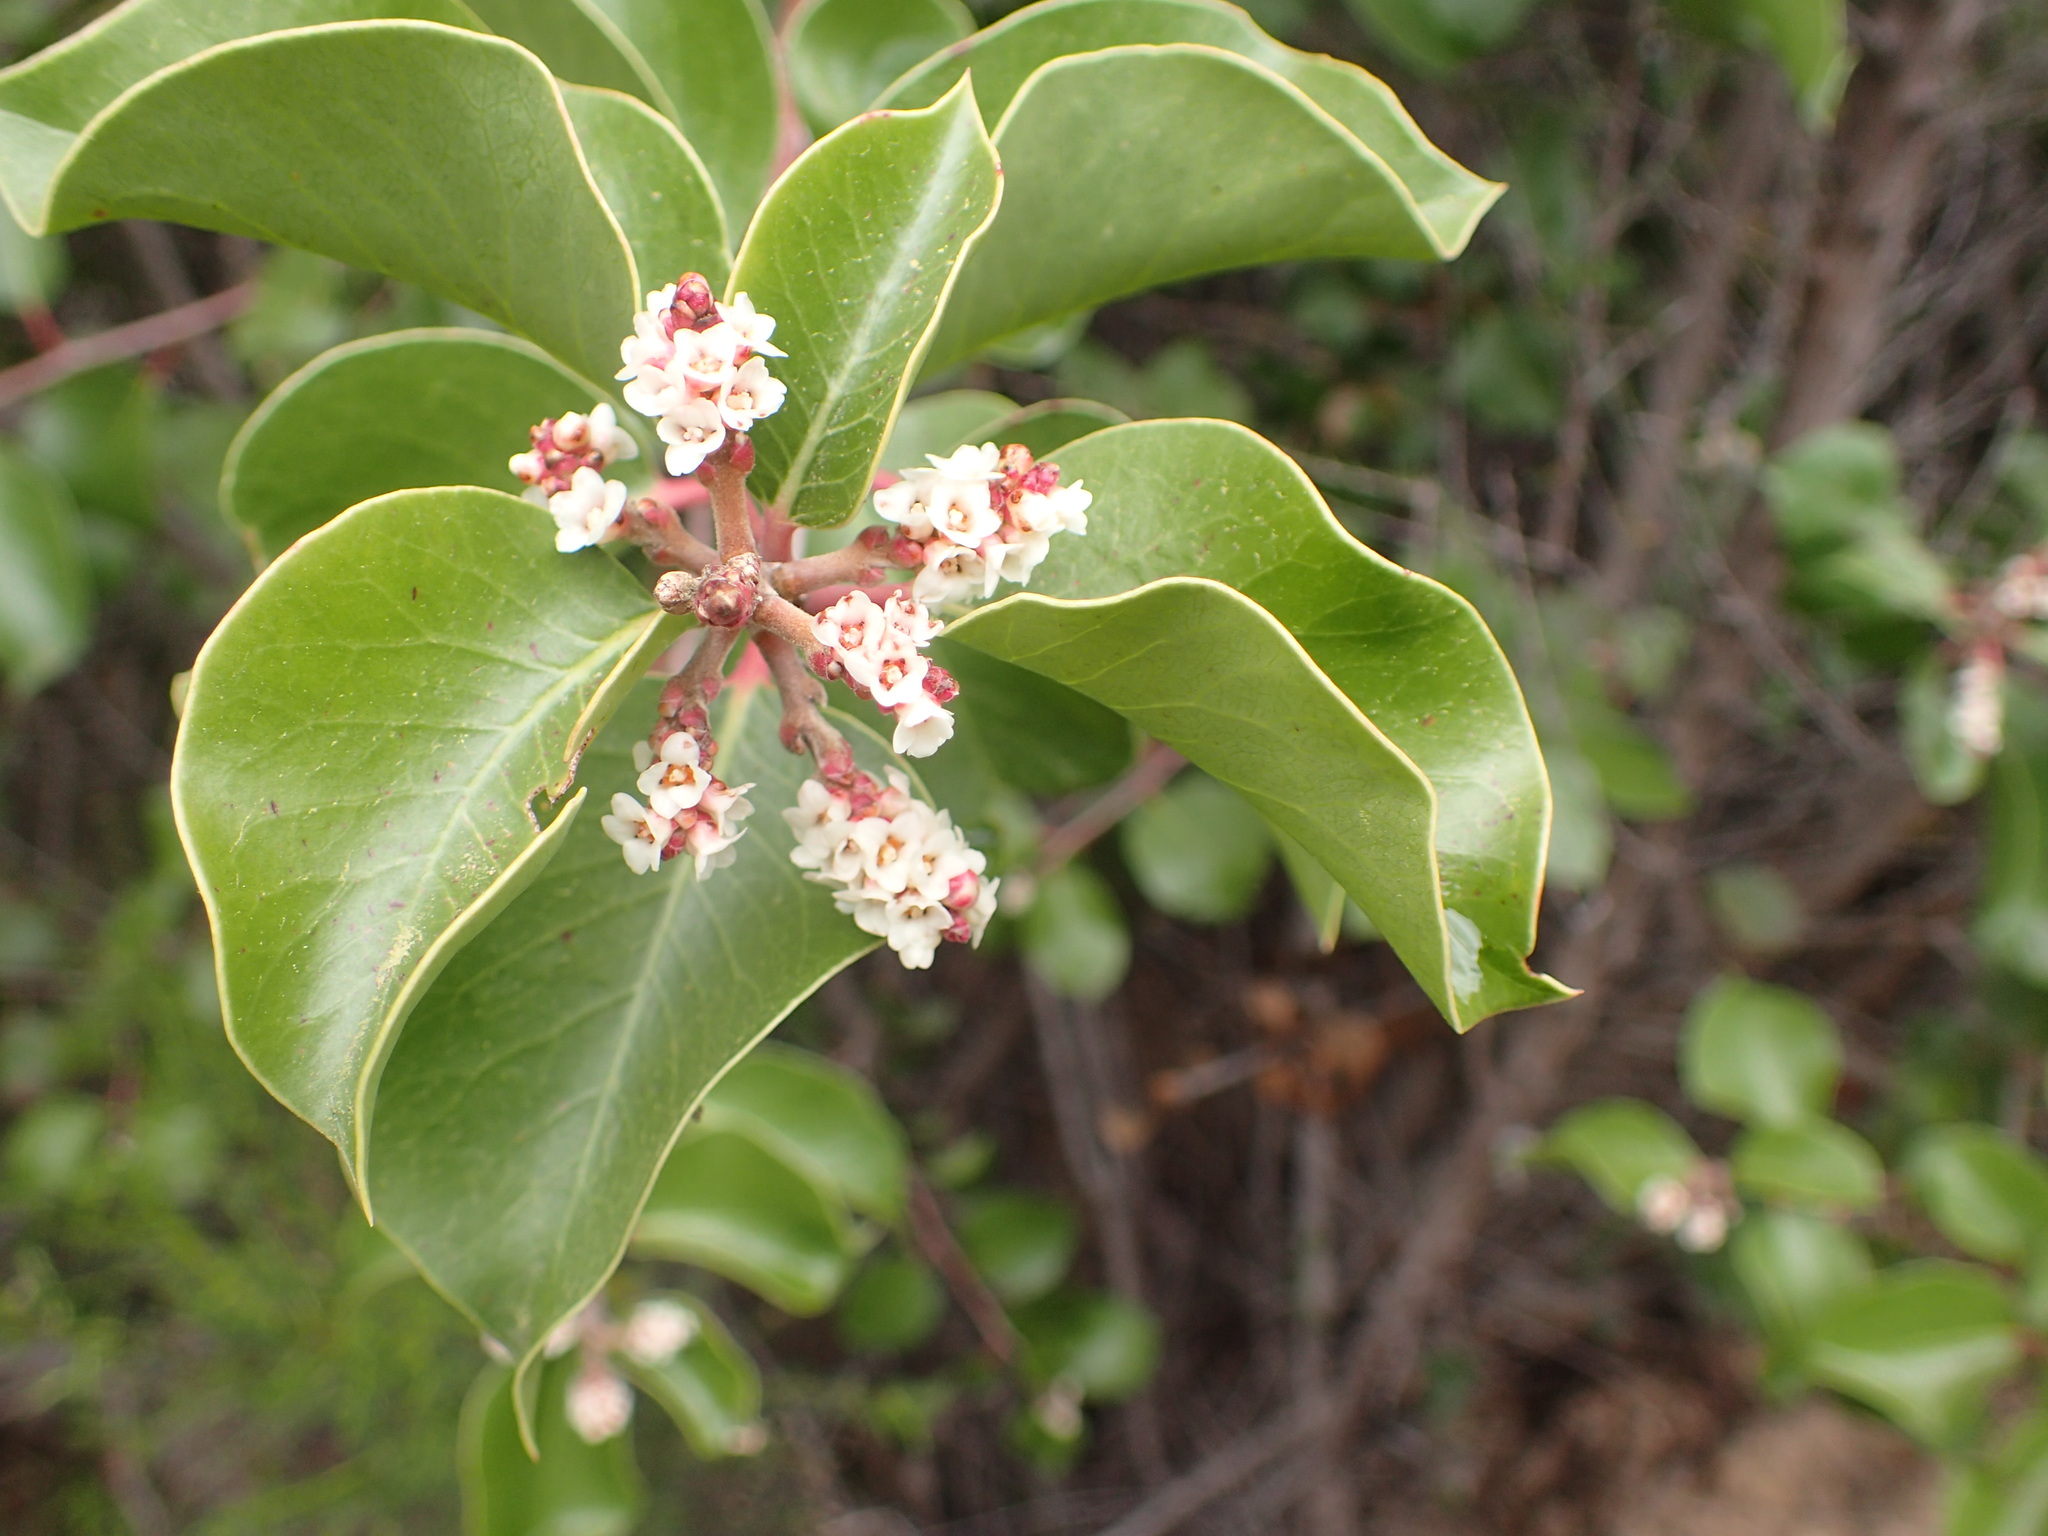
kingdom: Plantae
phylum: Tracheophyta
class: Magnoliopsida
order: Sapindales
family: Anacardiaceae
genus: Rhus
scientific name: Rhus ovata
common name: Sugar sumac
